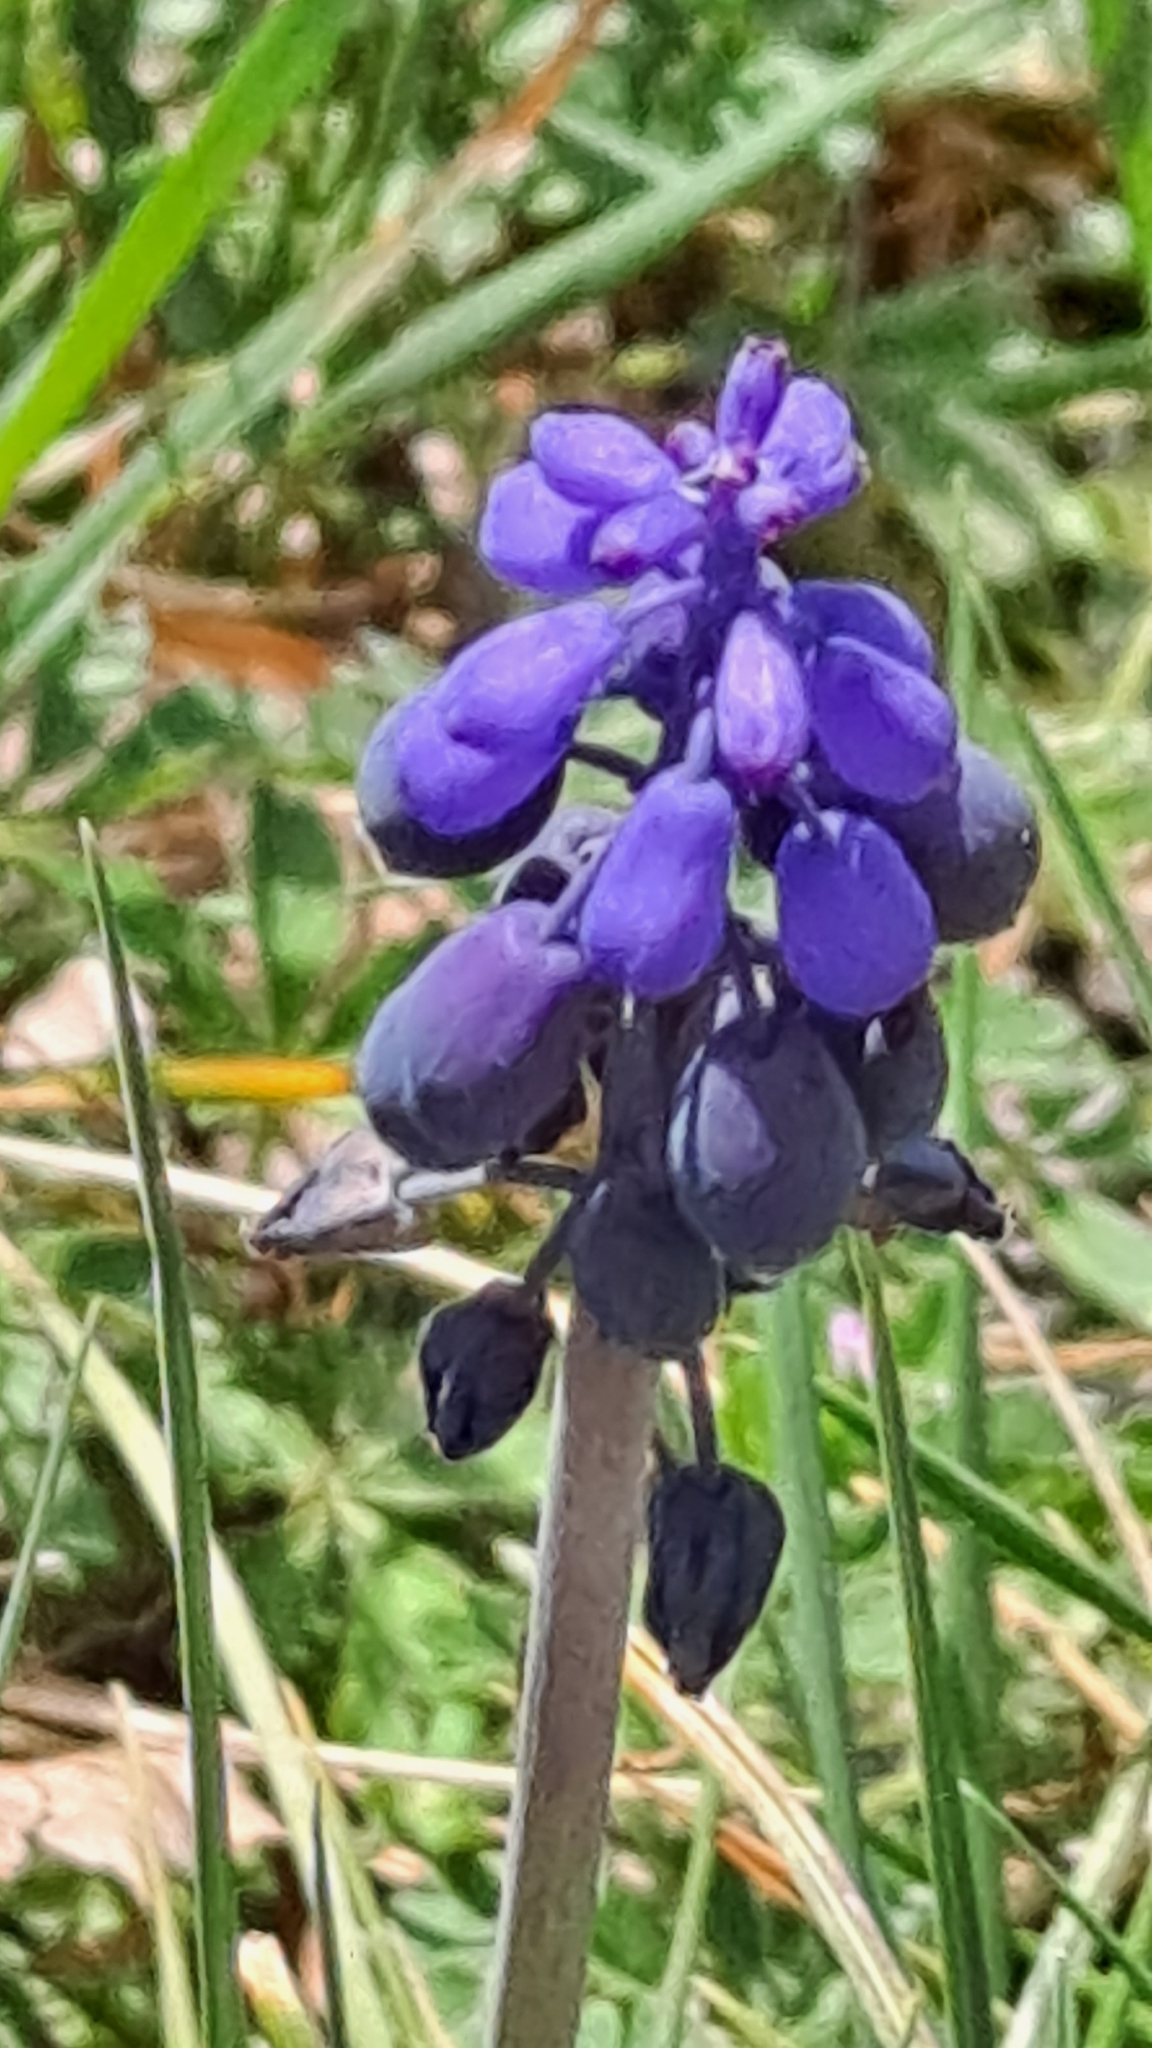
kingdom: Plantae
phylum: Tracheophyta
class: Liliopsida
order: Asparagales
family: Asparagaceae
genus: Muscari
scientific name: Muscari neglectum
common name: Grape-hyacinth
